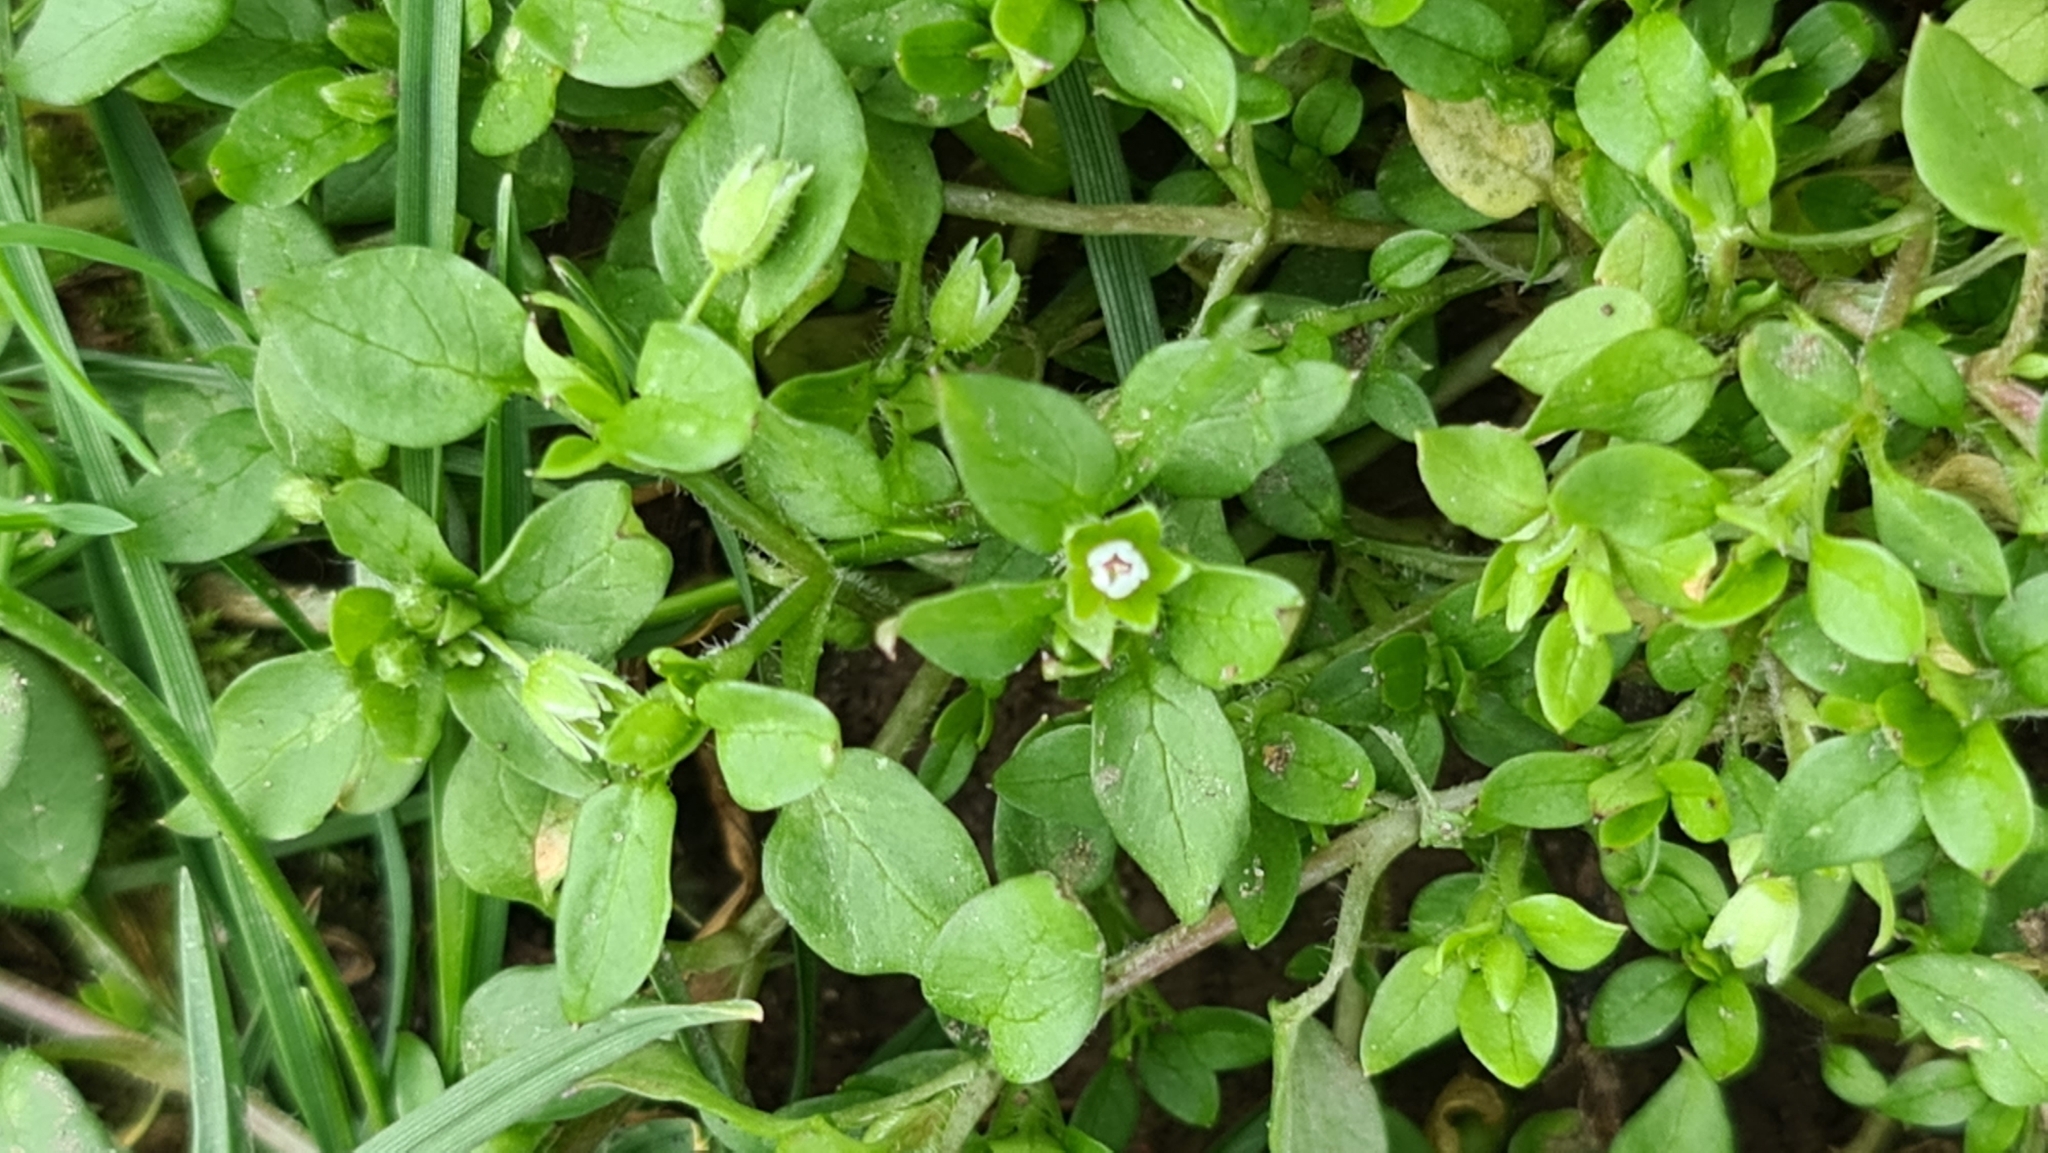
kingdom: Plantae
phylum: Tracheophyta
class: Magnoliopsida
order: Caryophyllales
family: Caryophyllaceae
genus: Stellaria
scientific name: Stellaria media
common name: Common chickweed
